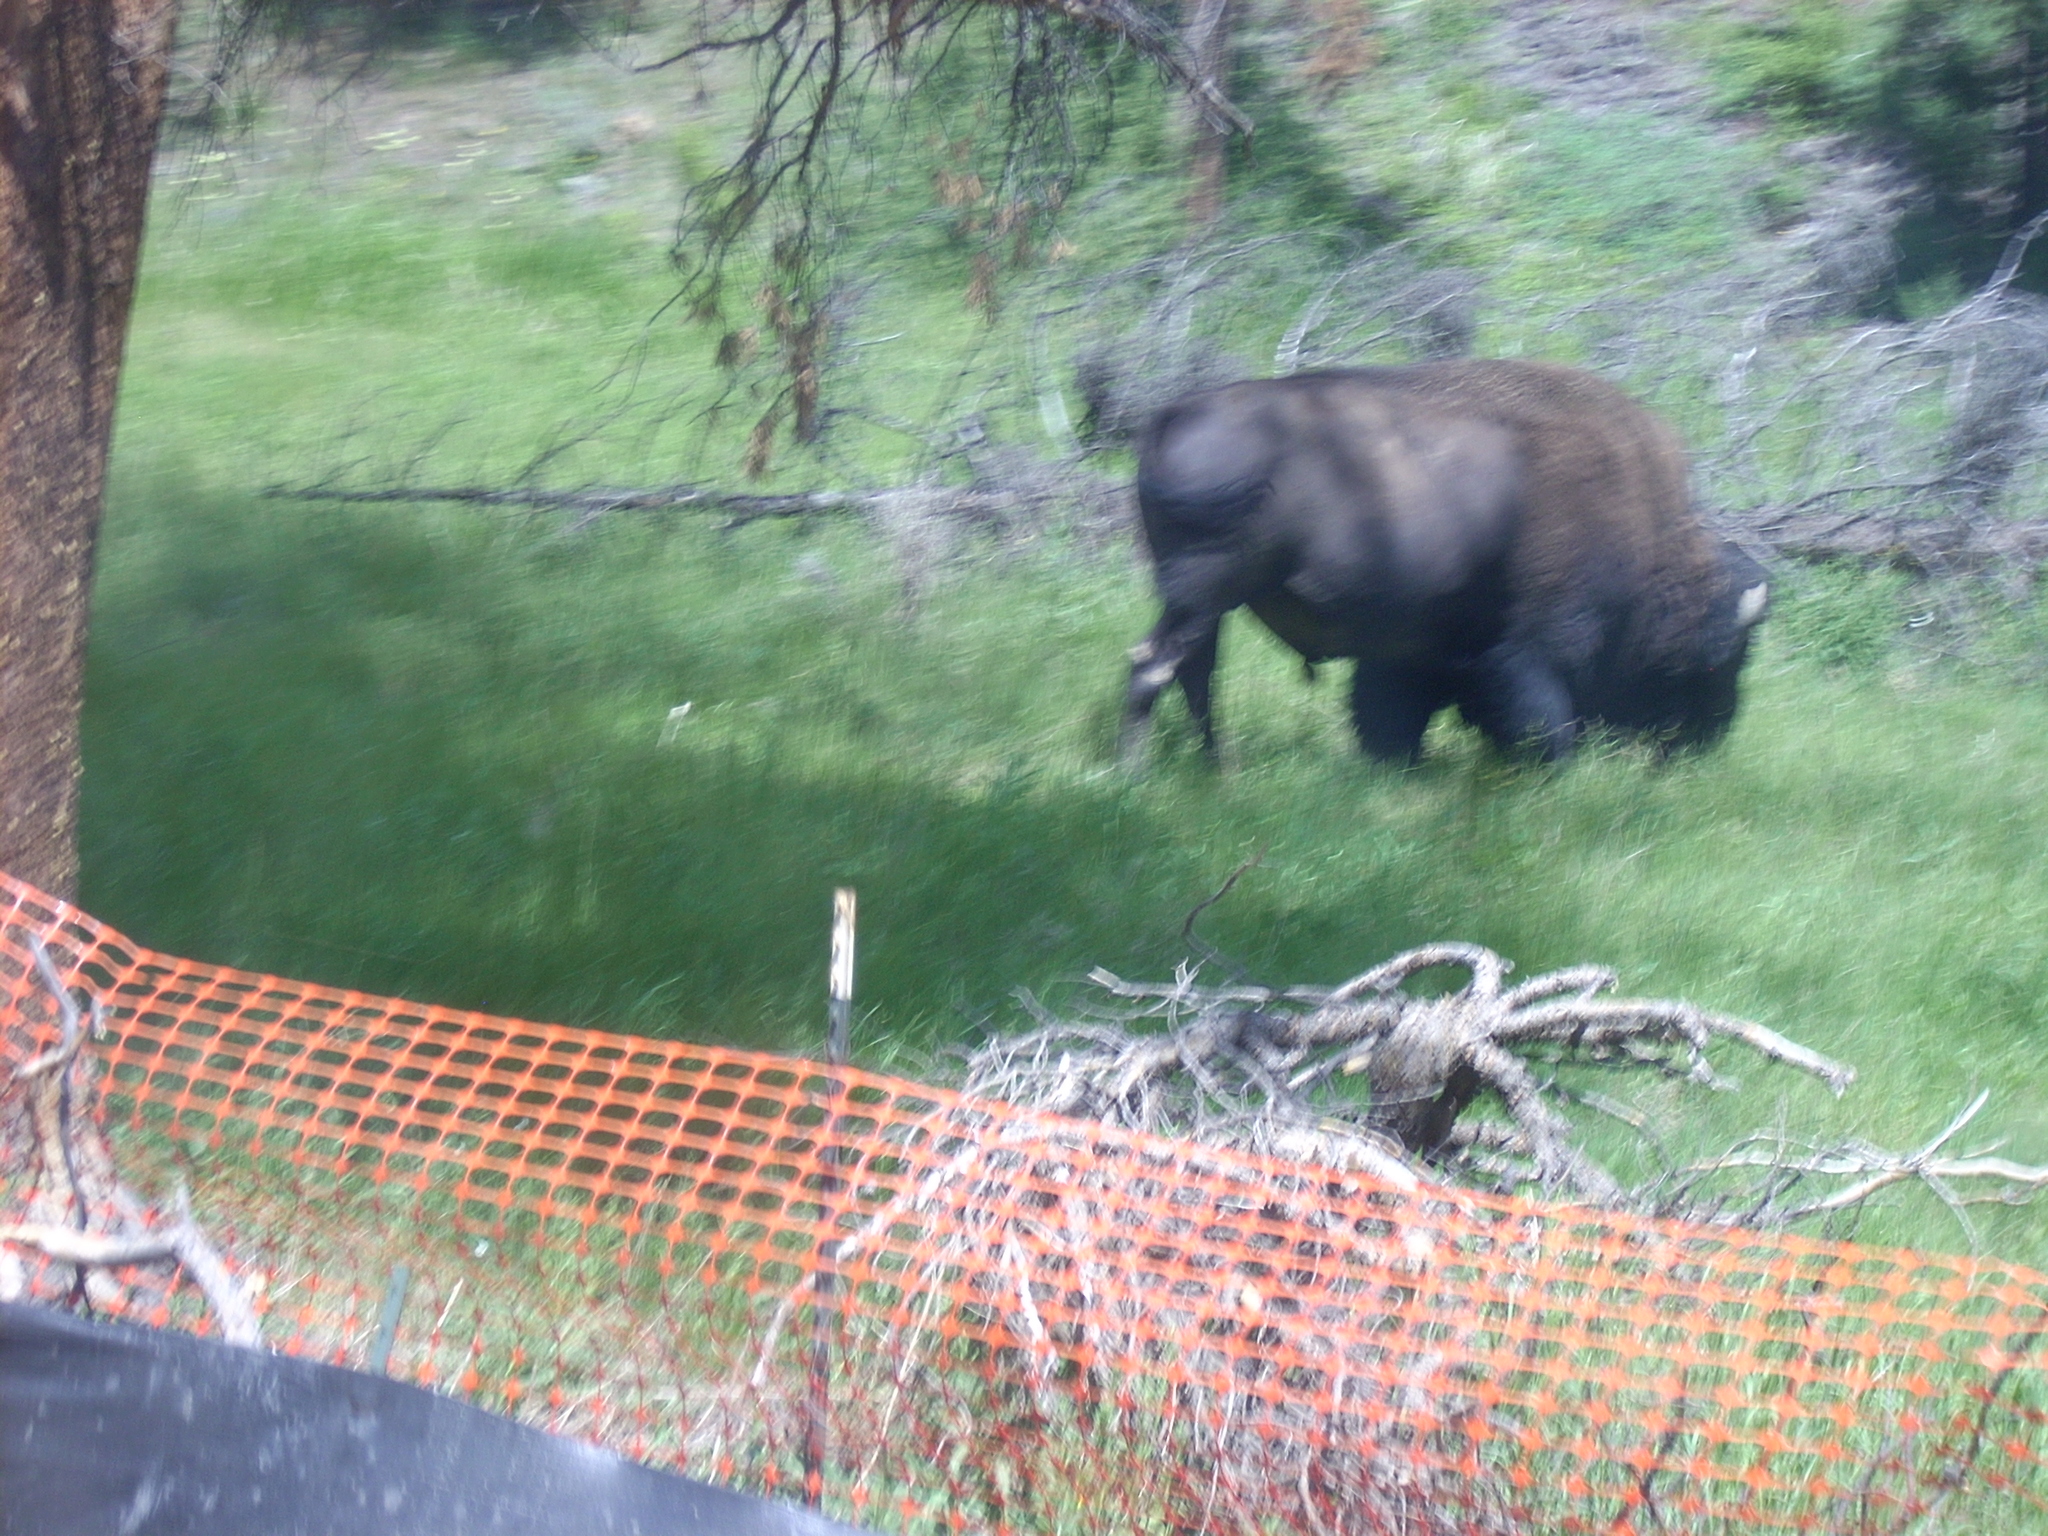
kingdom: Animalia
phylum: Chordata
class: Mammalia
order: Artiodactyla
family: Bovidae
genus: Bison
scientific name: Bison bison
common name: American bison
